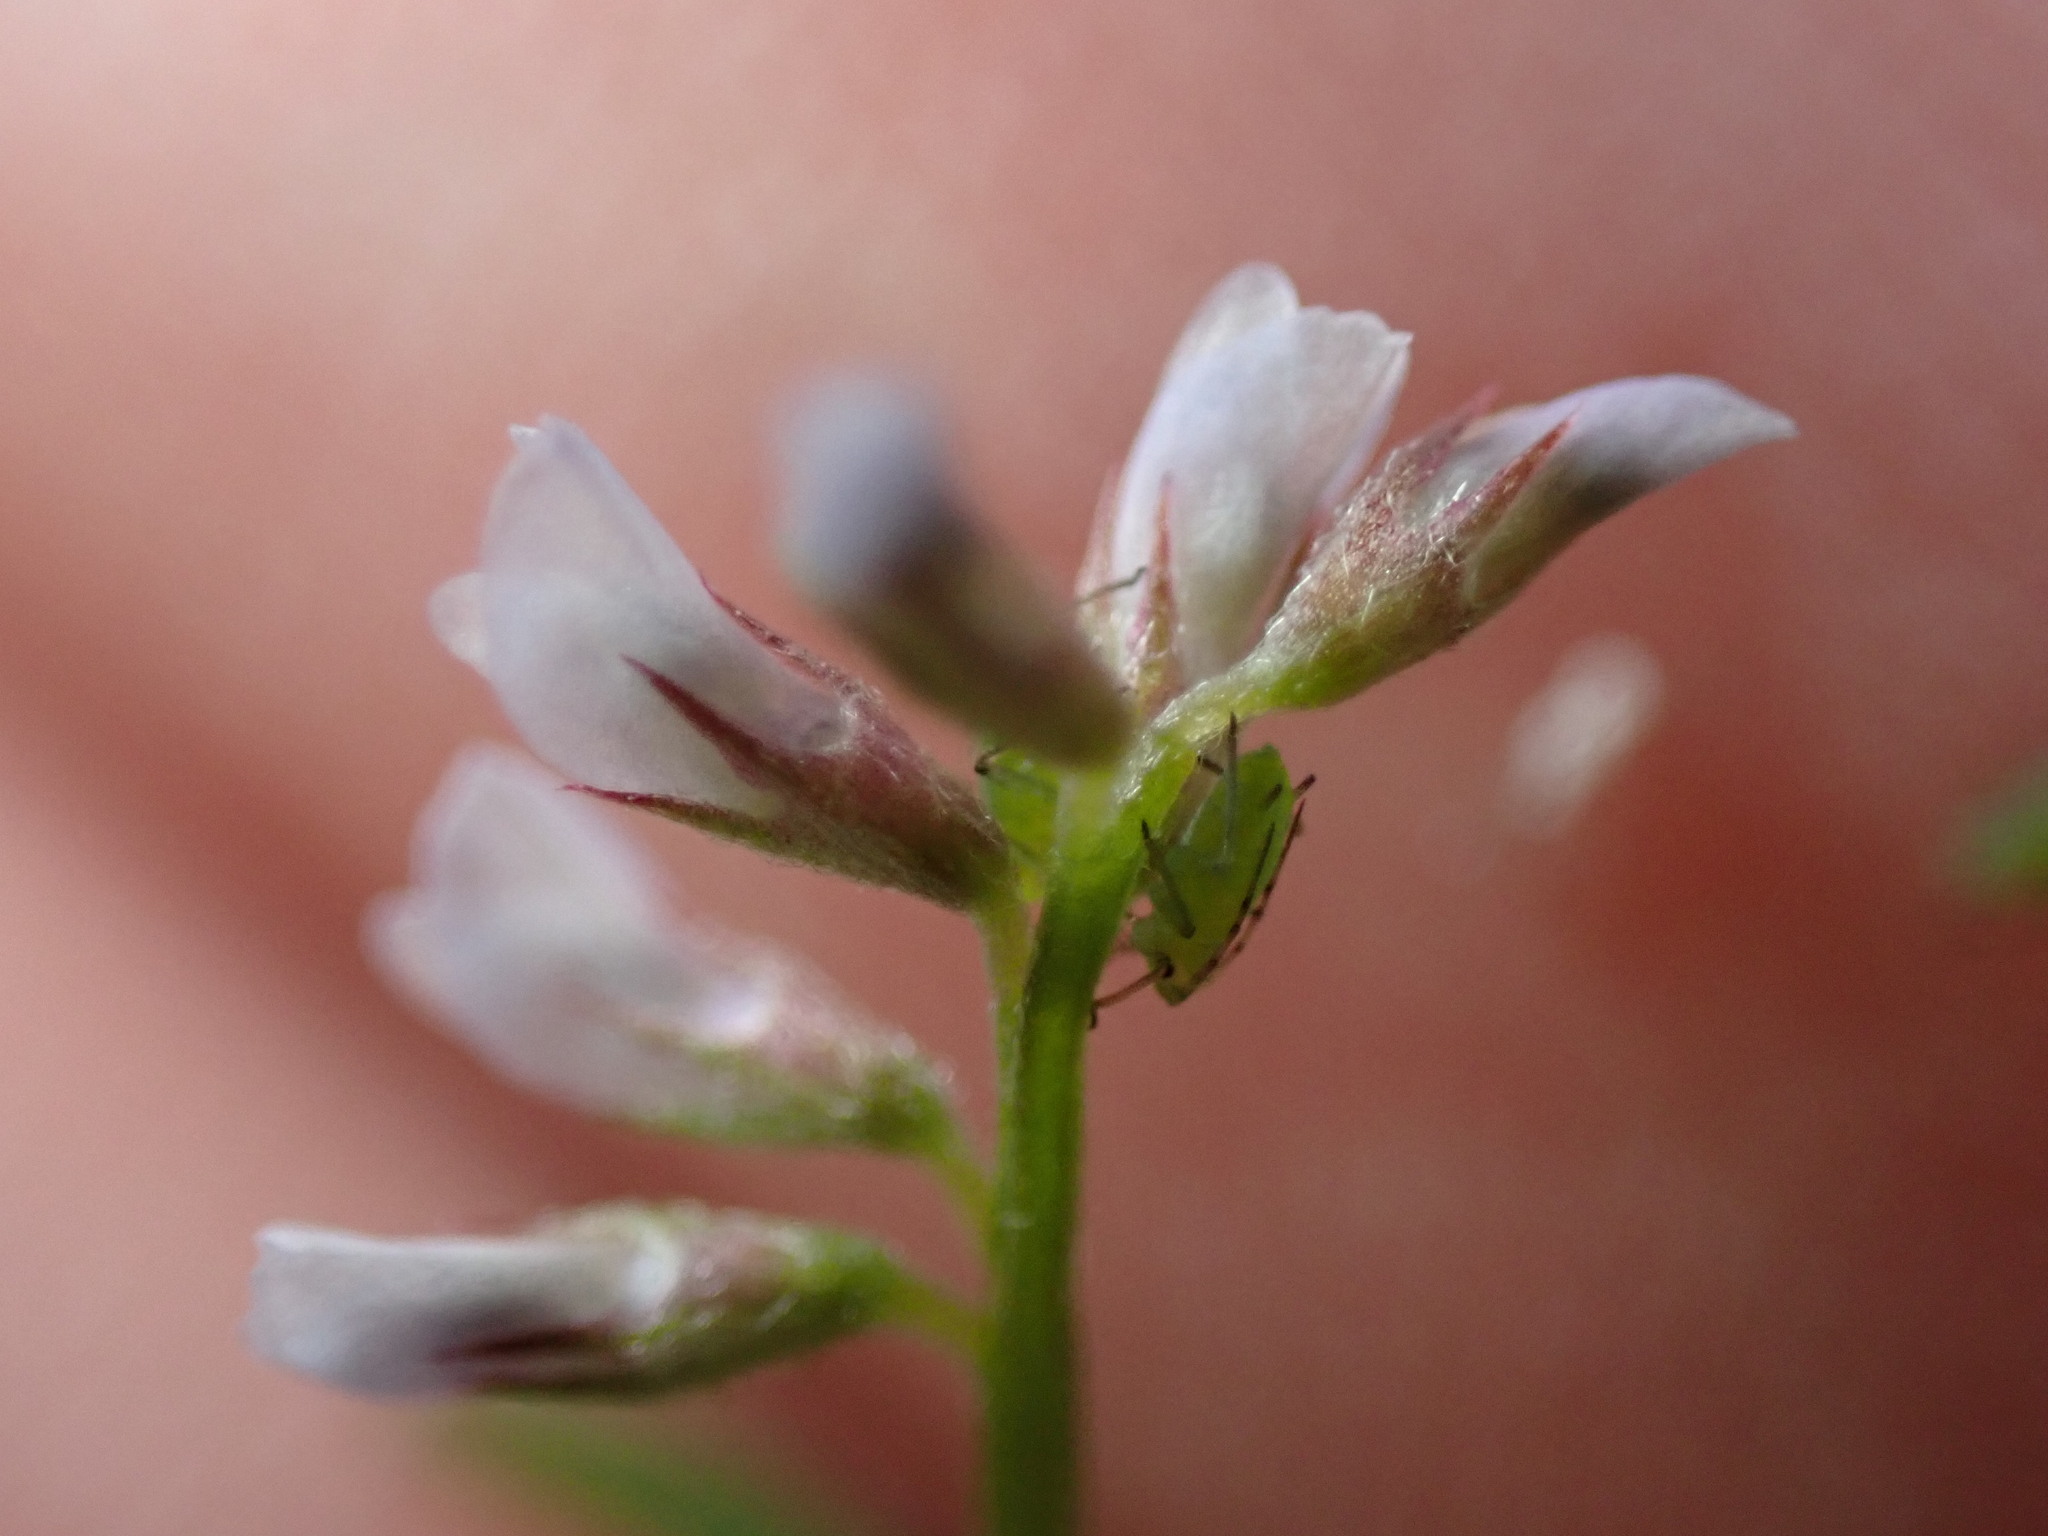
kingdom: Plantae
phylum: Tracheophyta
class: Magnoliopsida
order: Fabales
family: Fabaceae
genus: Vicia
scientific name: Vicia hirsuta
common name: Tiny vetch
